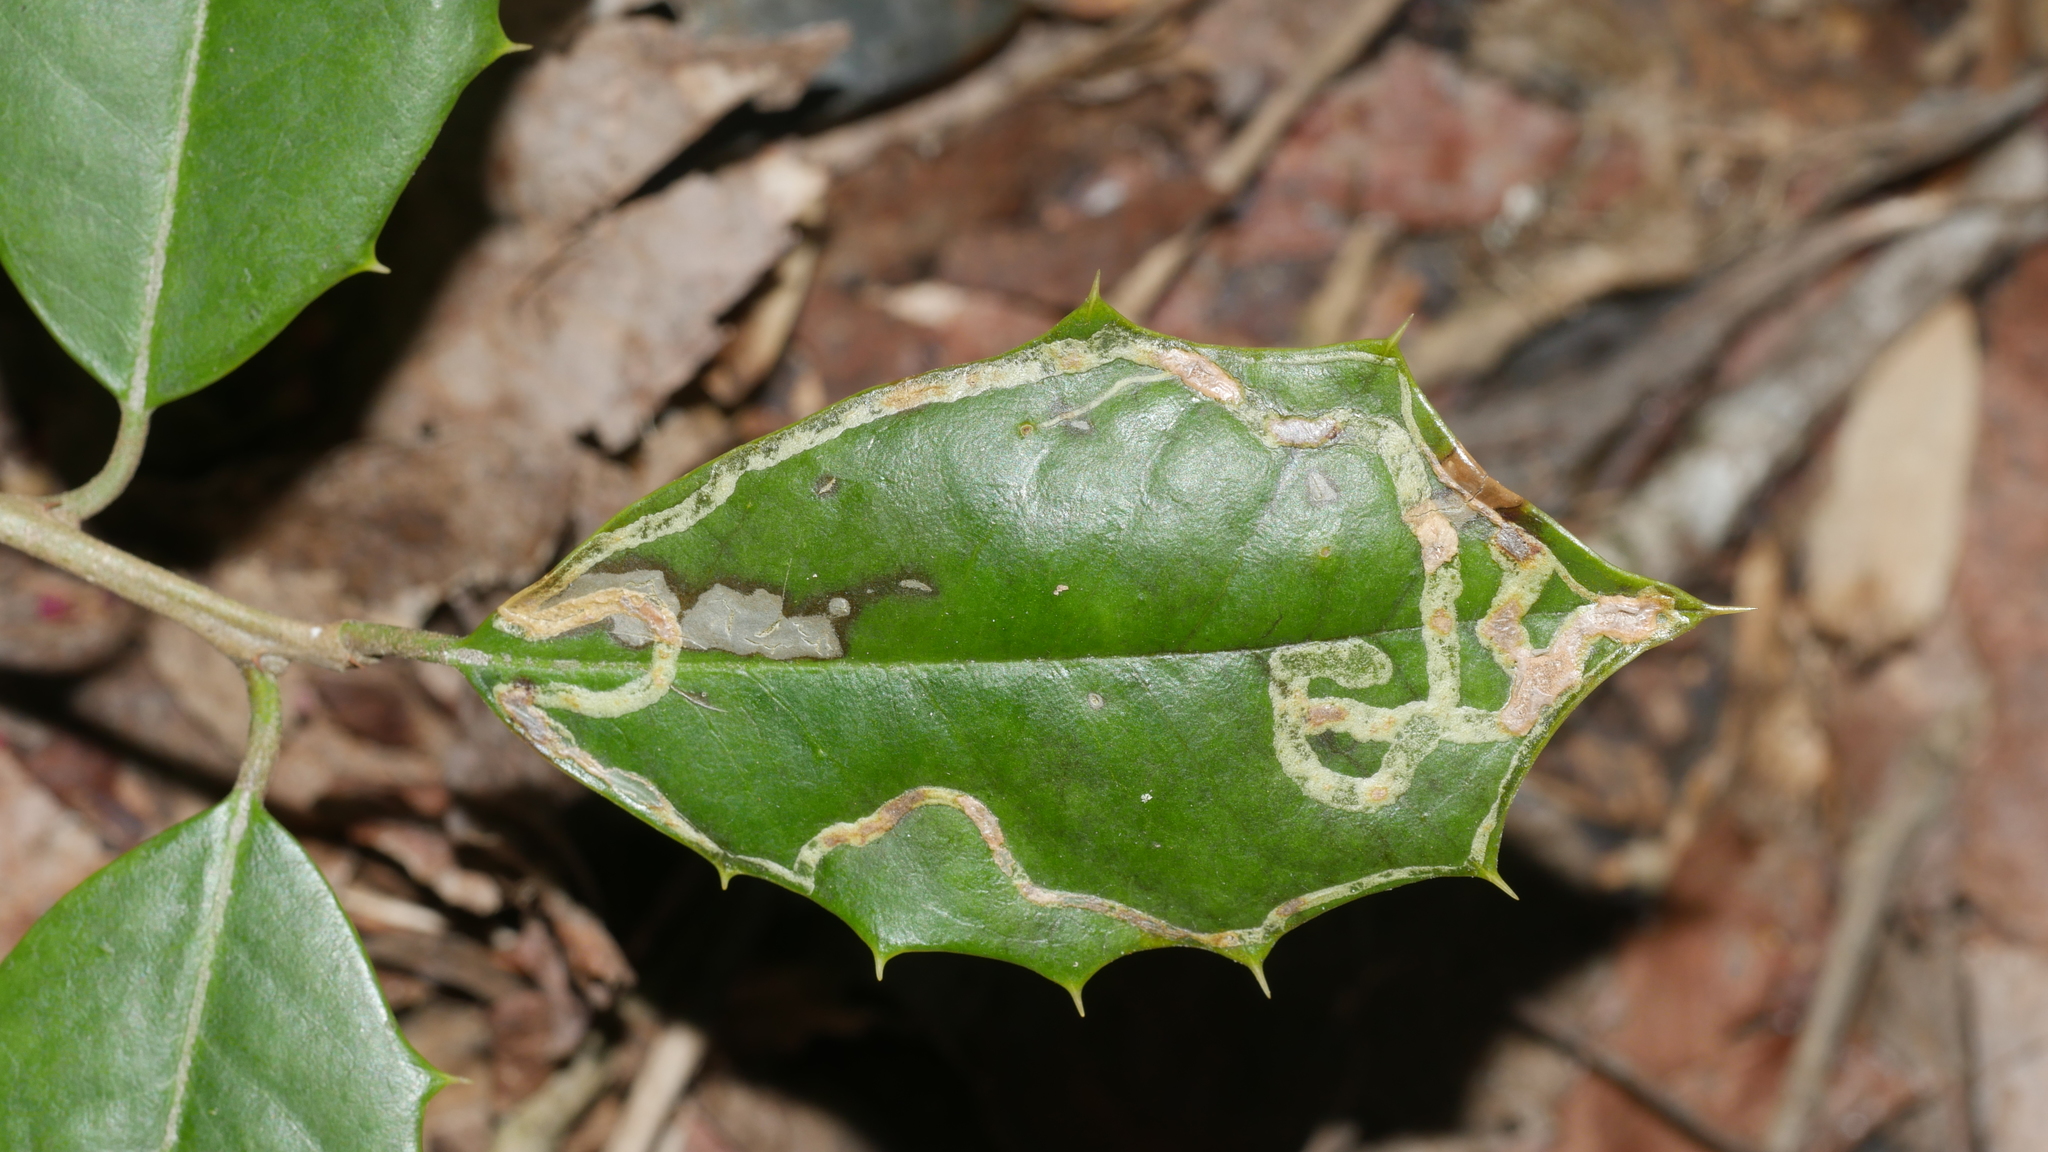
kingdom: Animalia
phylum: Arthropoda
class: Insecta
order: Diptera
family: Agromyzidae
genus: Phytomyza
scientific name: Phytomyza opacae
